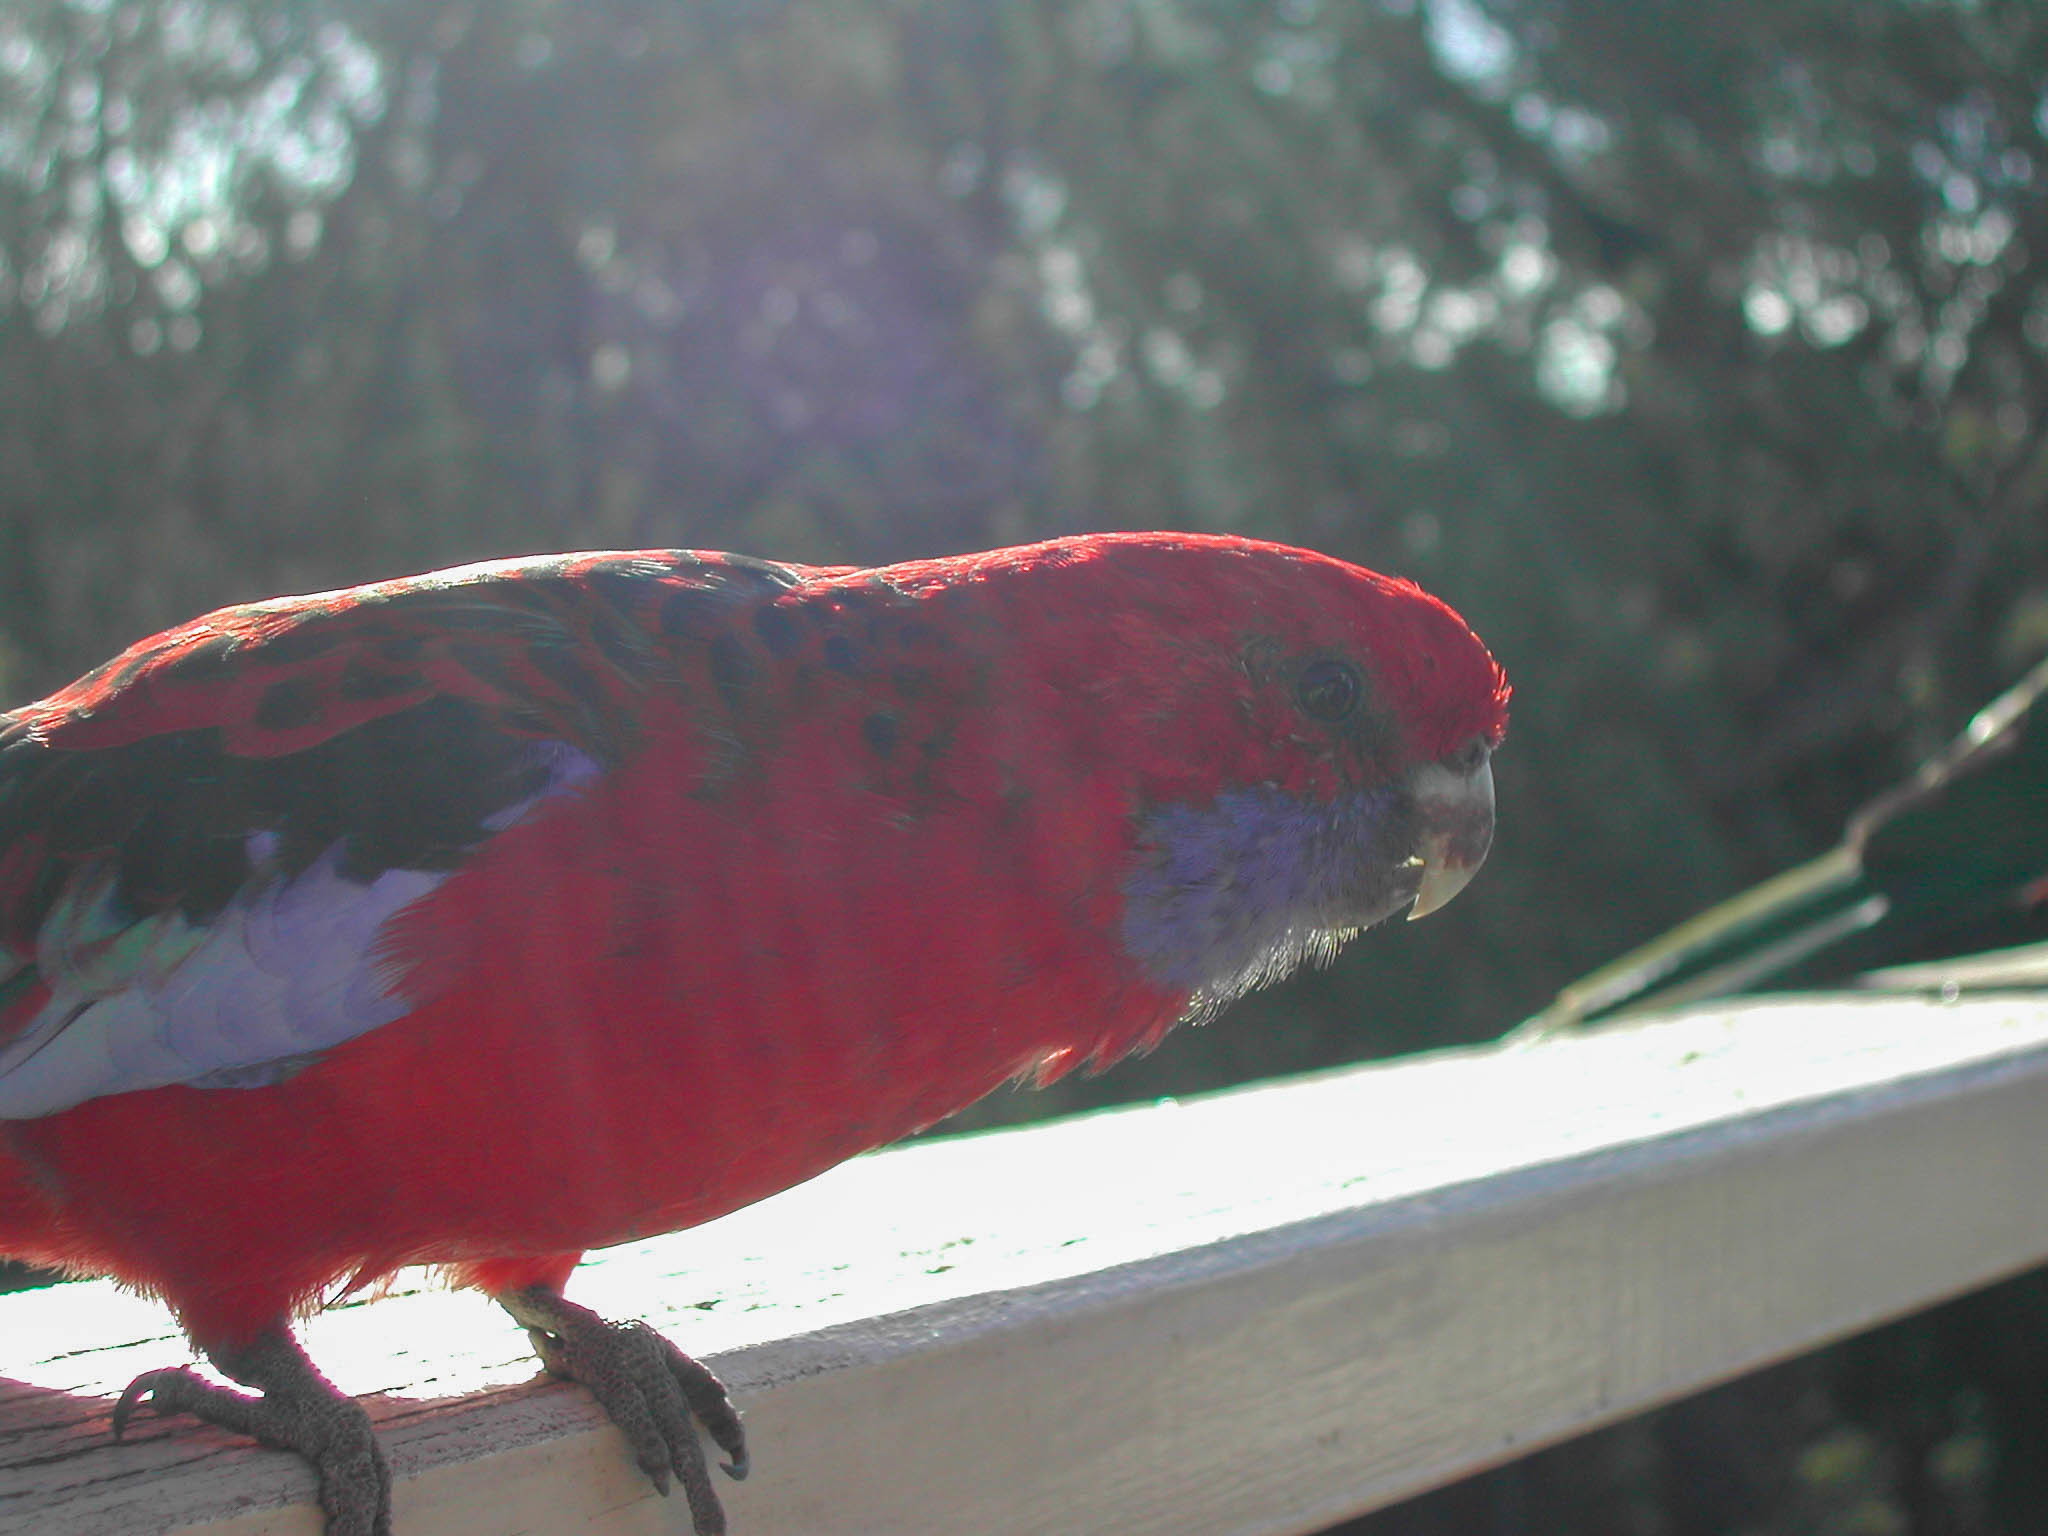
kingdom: Animalia
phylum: Chordata
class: Aves
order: Psittaciformes
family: Psittacidae
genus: Platycercus
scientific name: Platycercus elegans
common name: Crimson rosella
